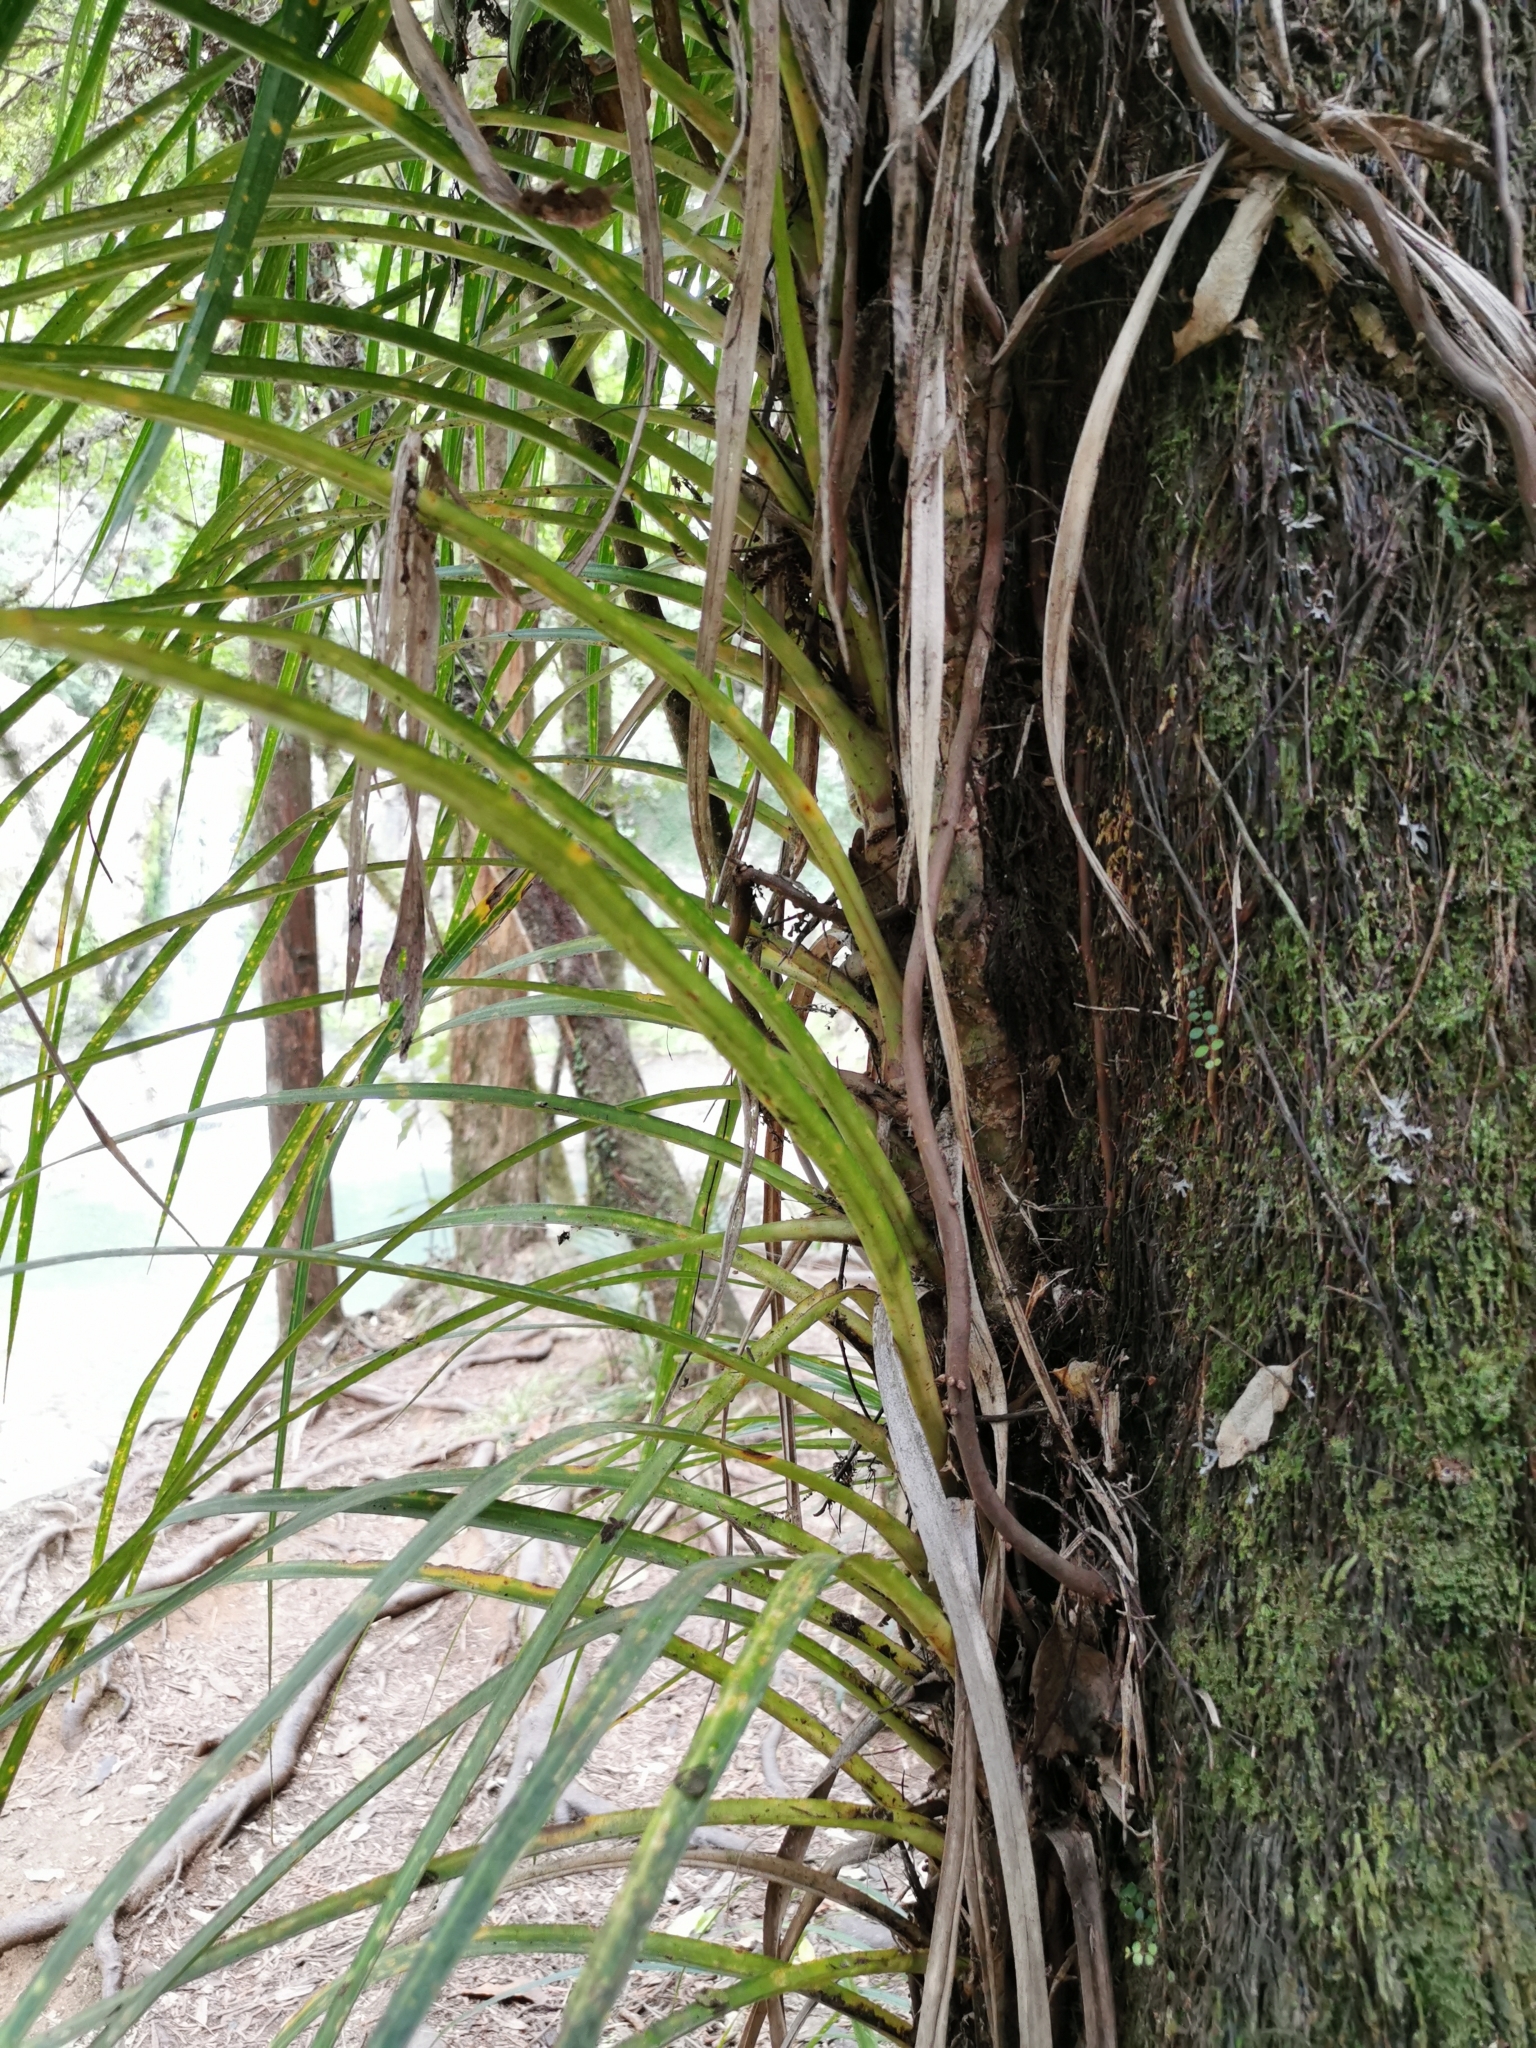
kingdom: Plantae
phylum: Tracheophyta
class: Liliopsida
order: Pandanales
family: Pandanaceae
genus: Freycinetia
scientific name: Freycinetia banksii
